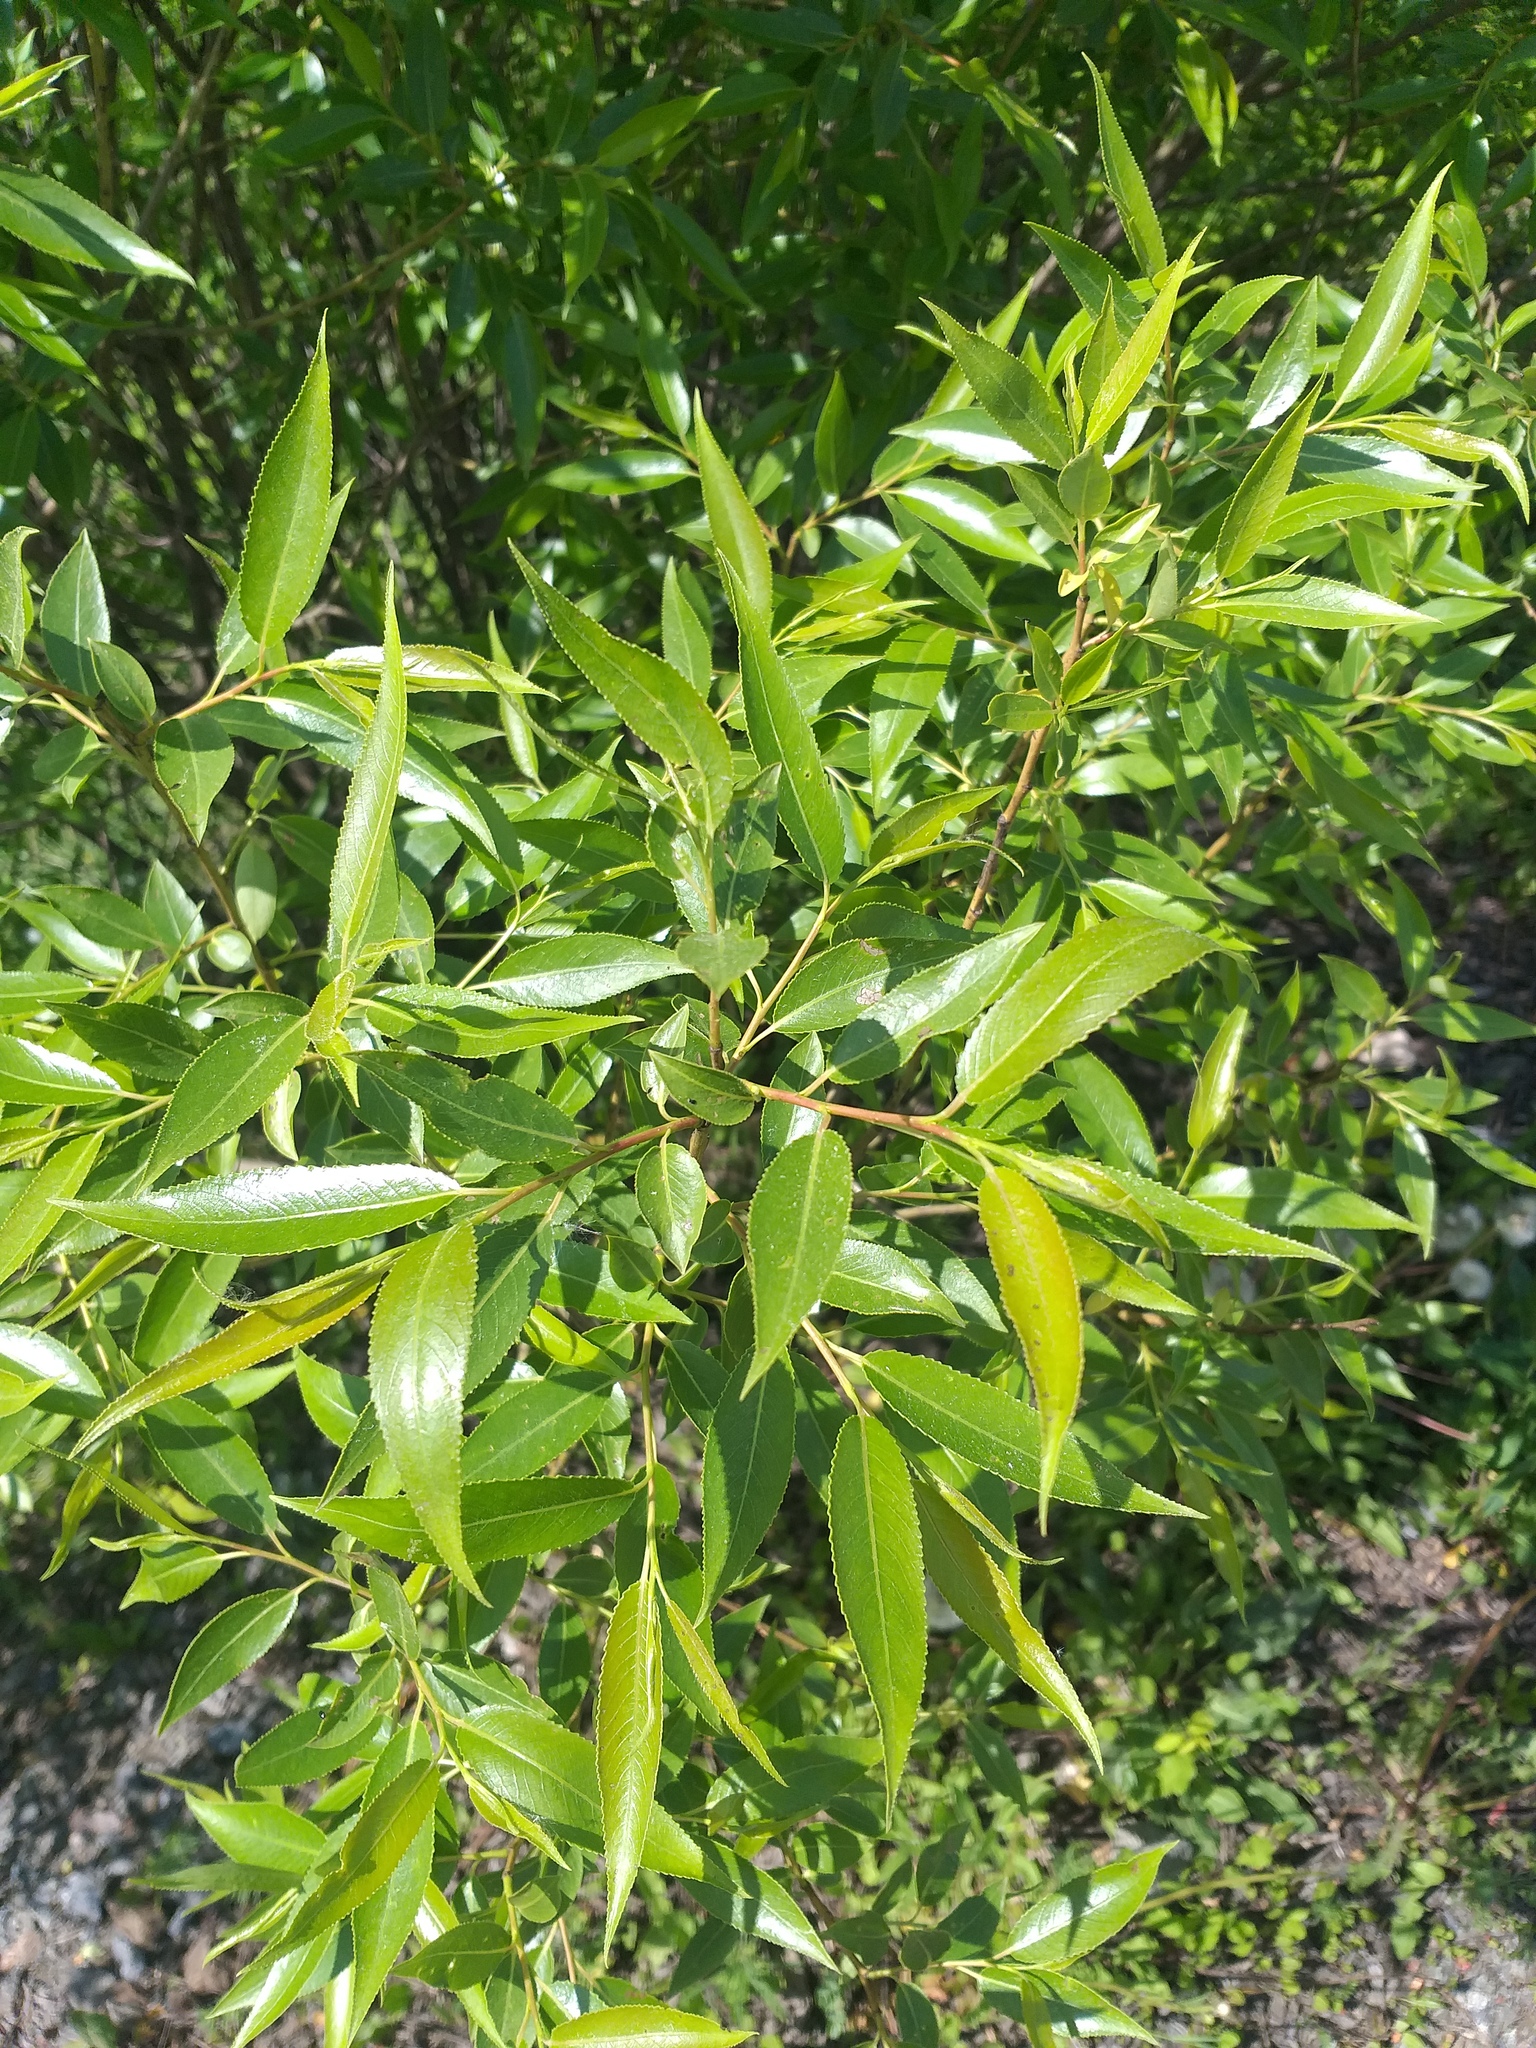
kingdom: Plantae
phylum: Tracheophyta
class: Magnoliopsida
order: Malpighiales
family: Salicaceae
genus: Salix
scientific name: Salix alba
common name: White willow
